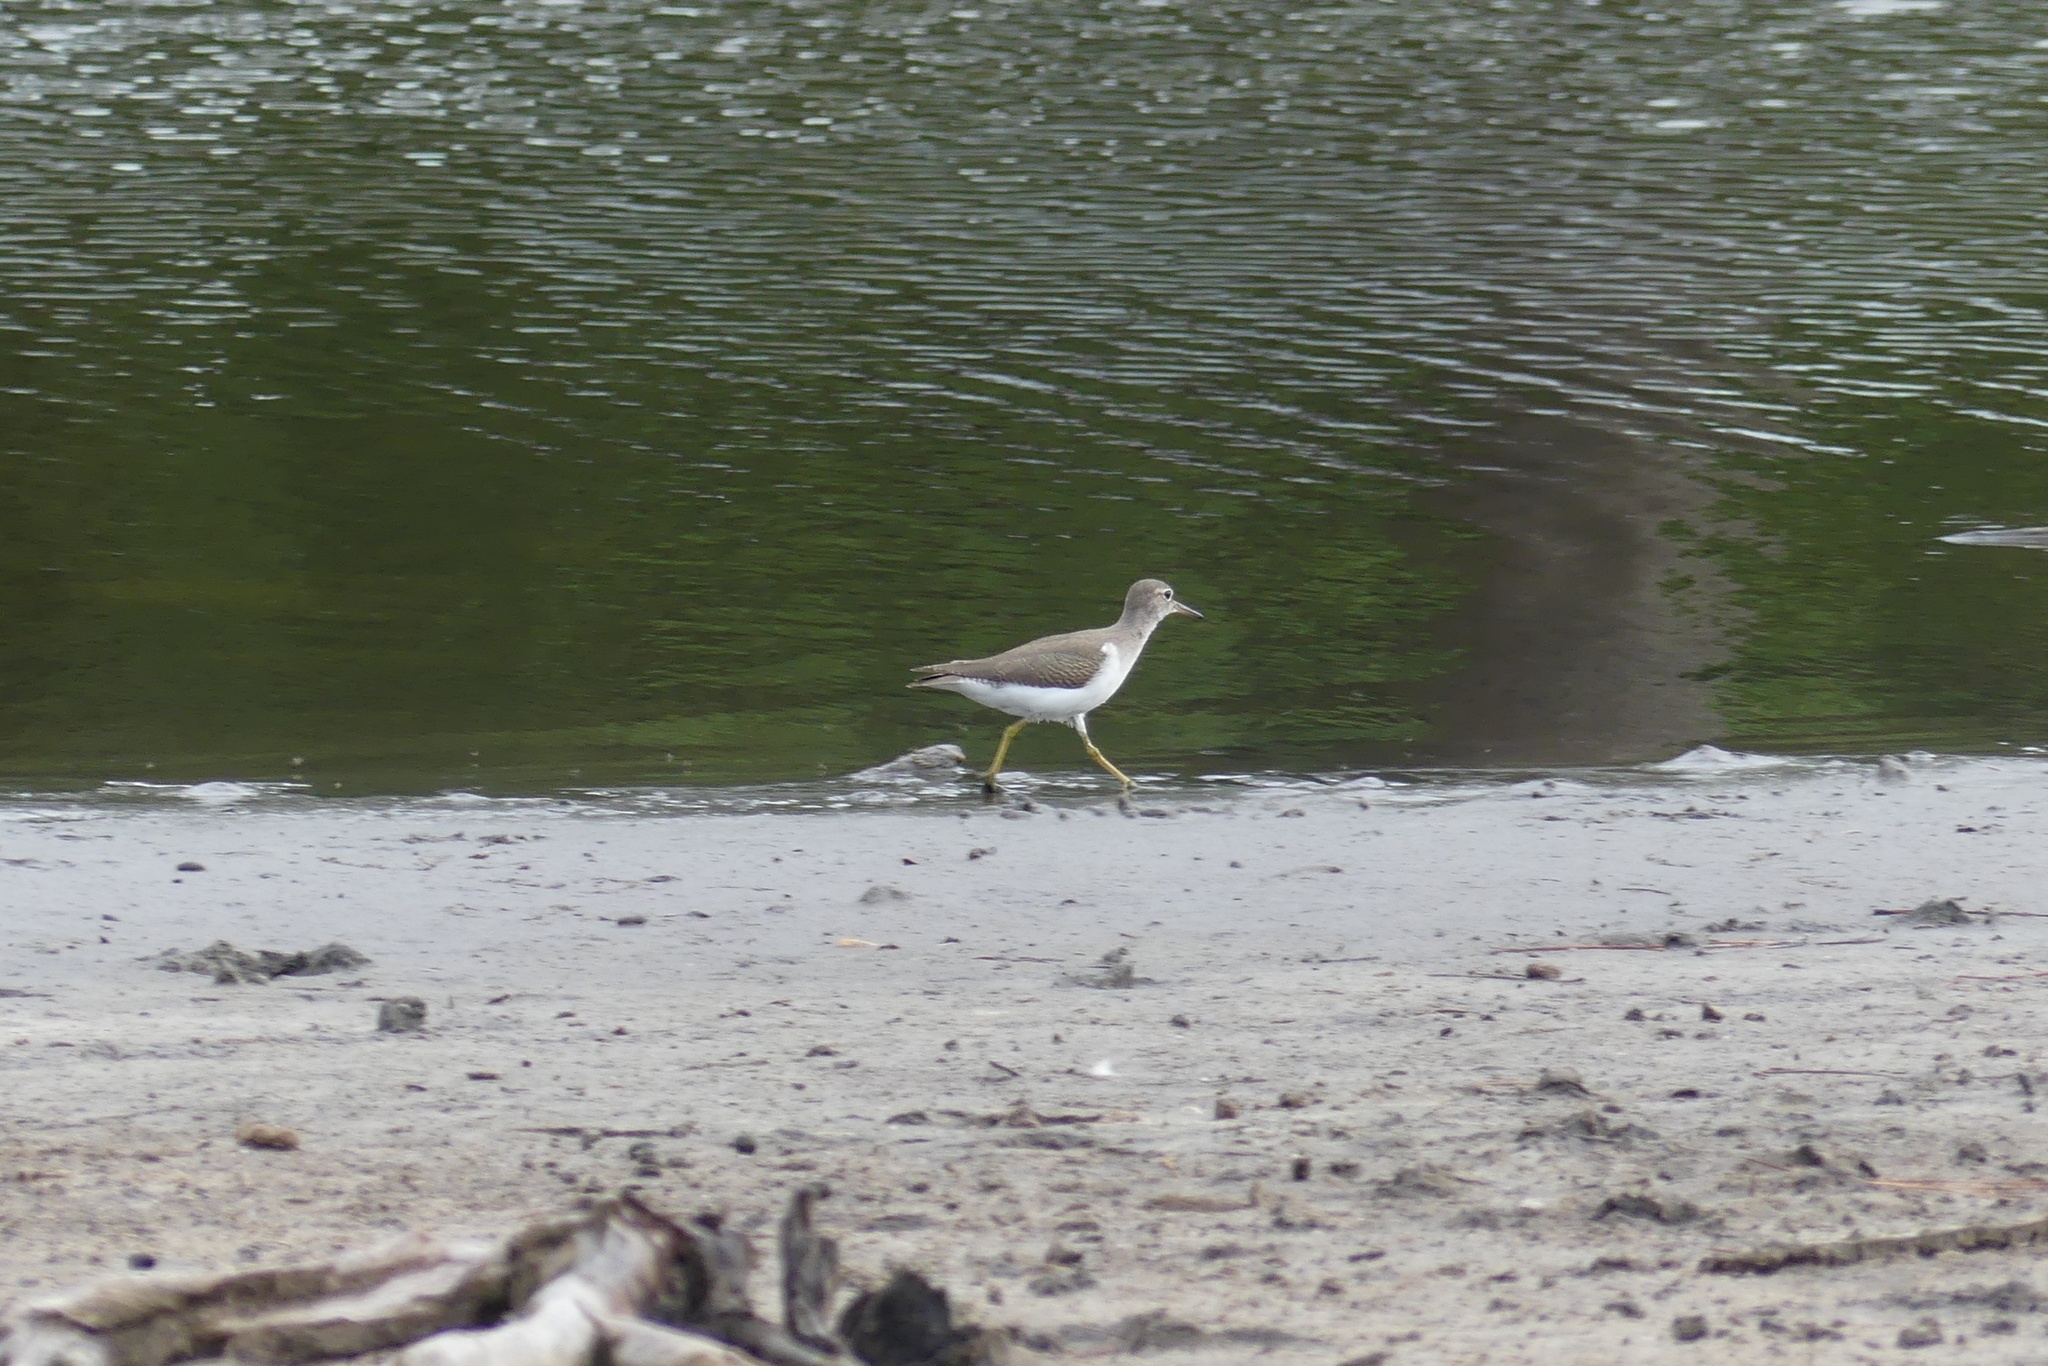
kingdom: Animalia
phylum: Chordata
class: Aves
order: Charadriiformes
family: Scolopacidae
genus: Actitis
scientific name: Actitis macularius
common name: Spotted sandpiper
